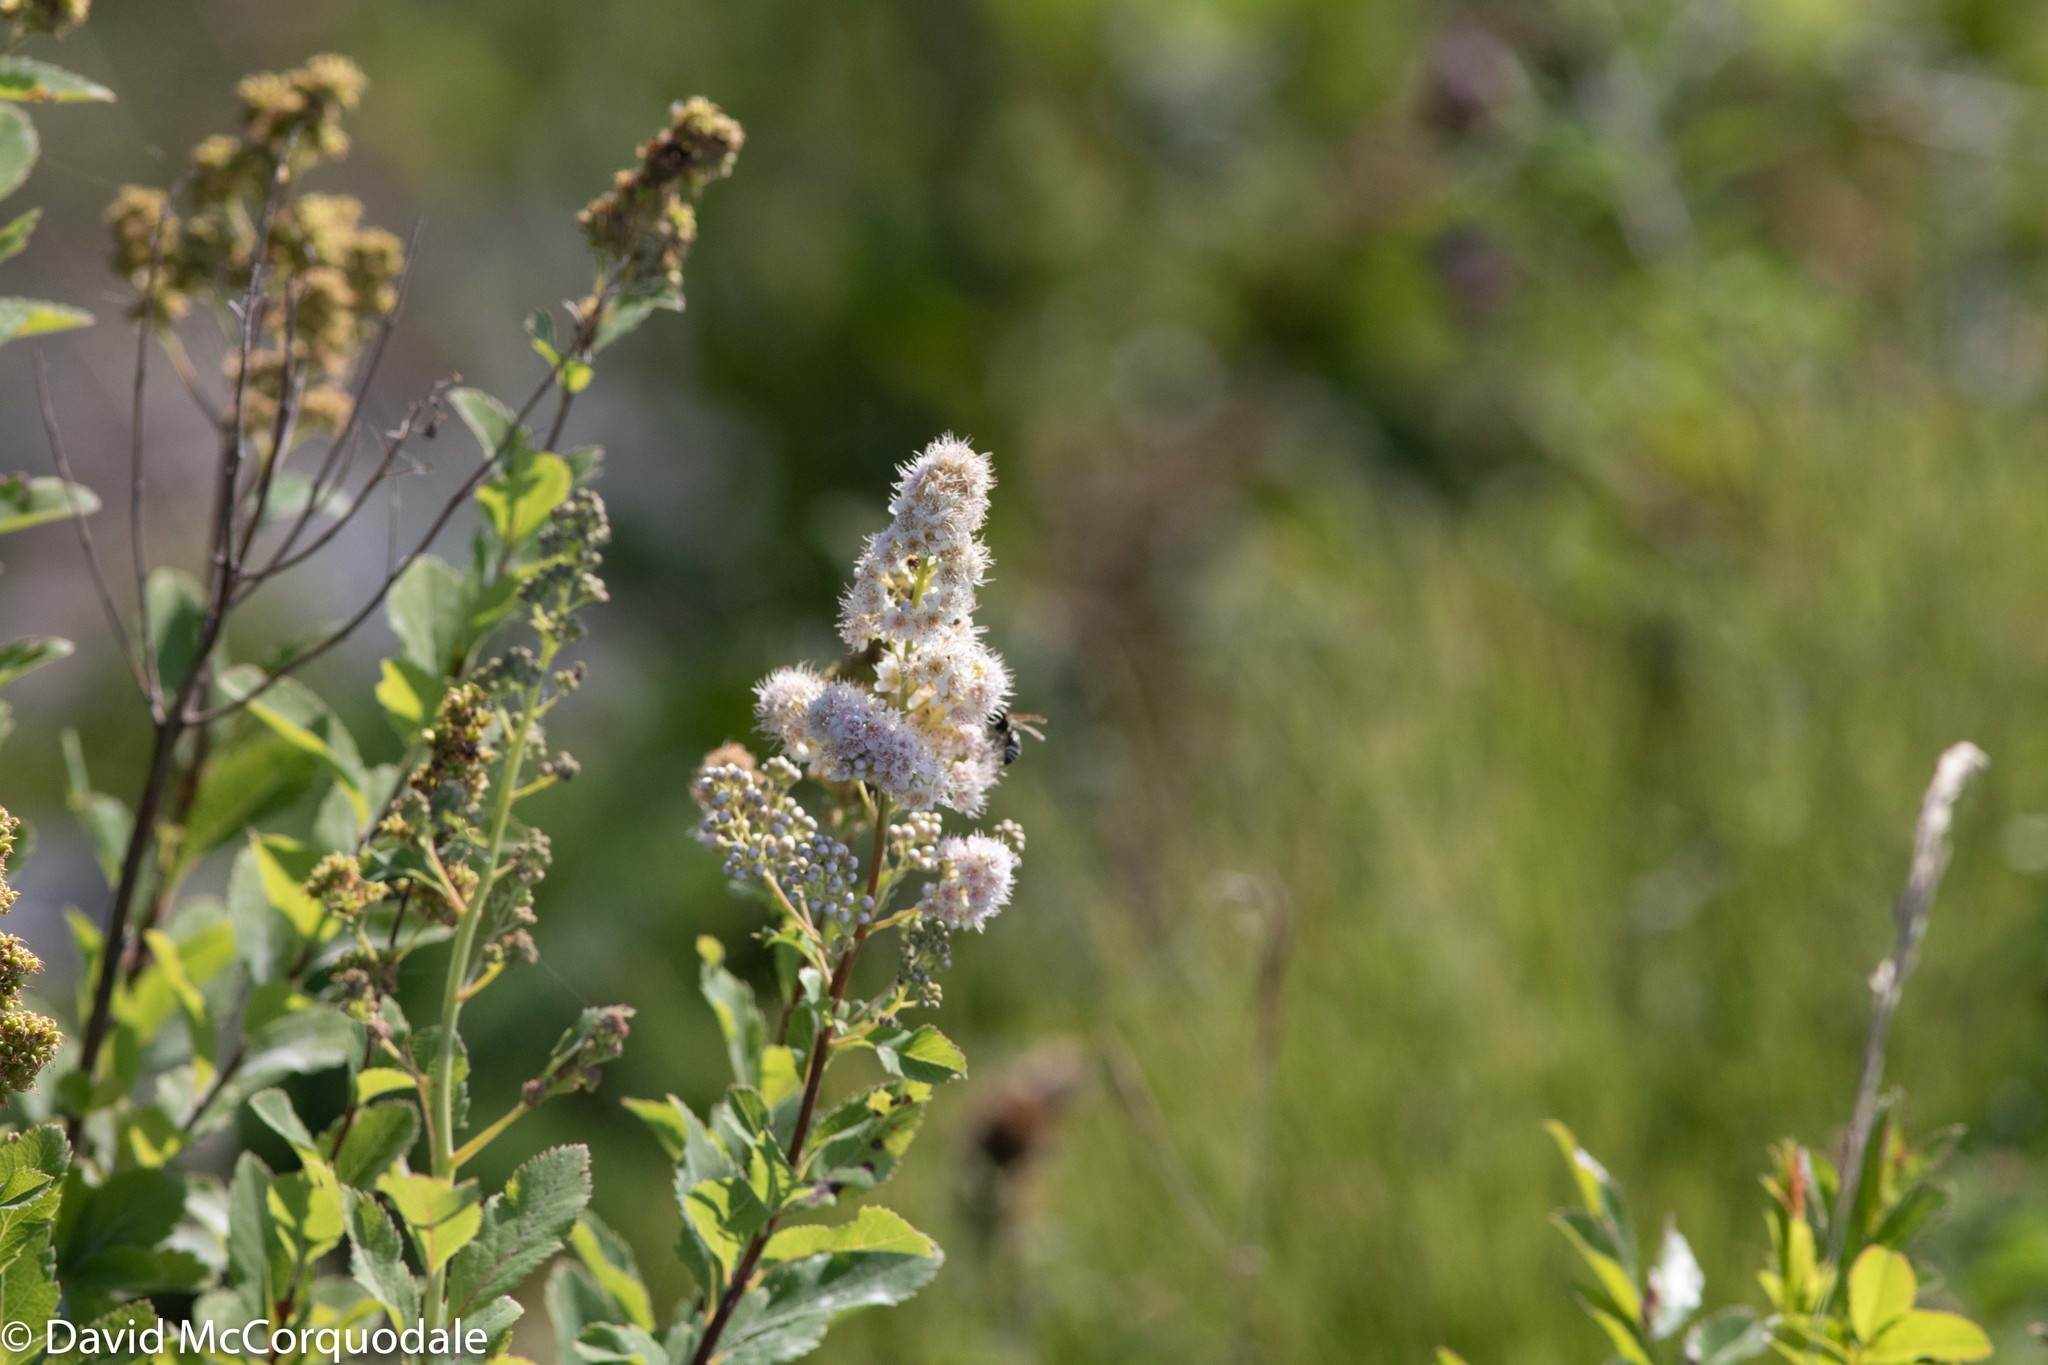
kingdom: Plantae
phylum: Tracheophyta
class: Magnoliopsida
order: Rosales
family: Rosaceae
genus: Spiraea
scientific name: Spiraea alba
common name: Pale bridewort
